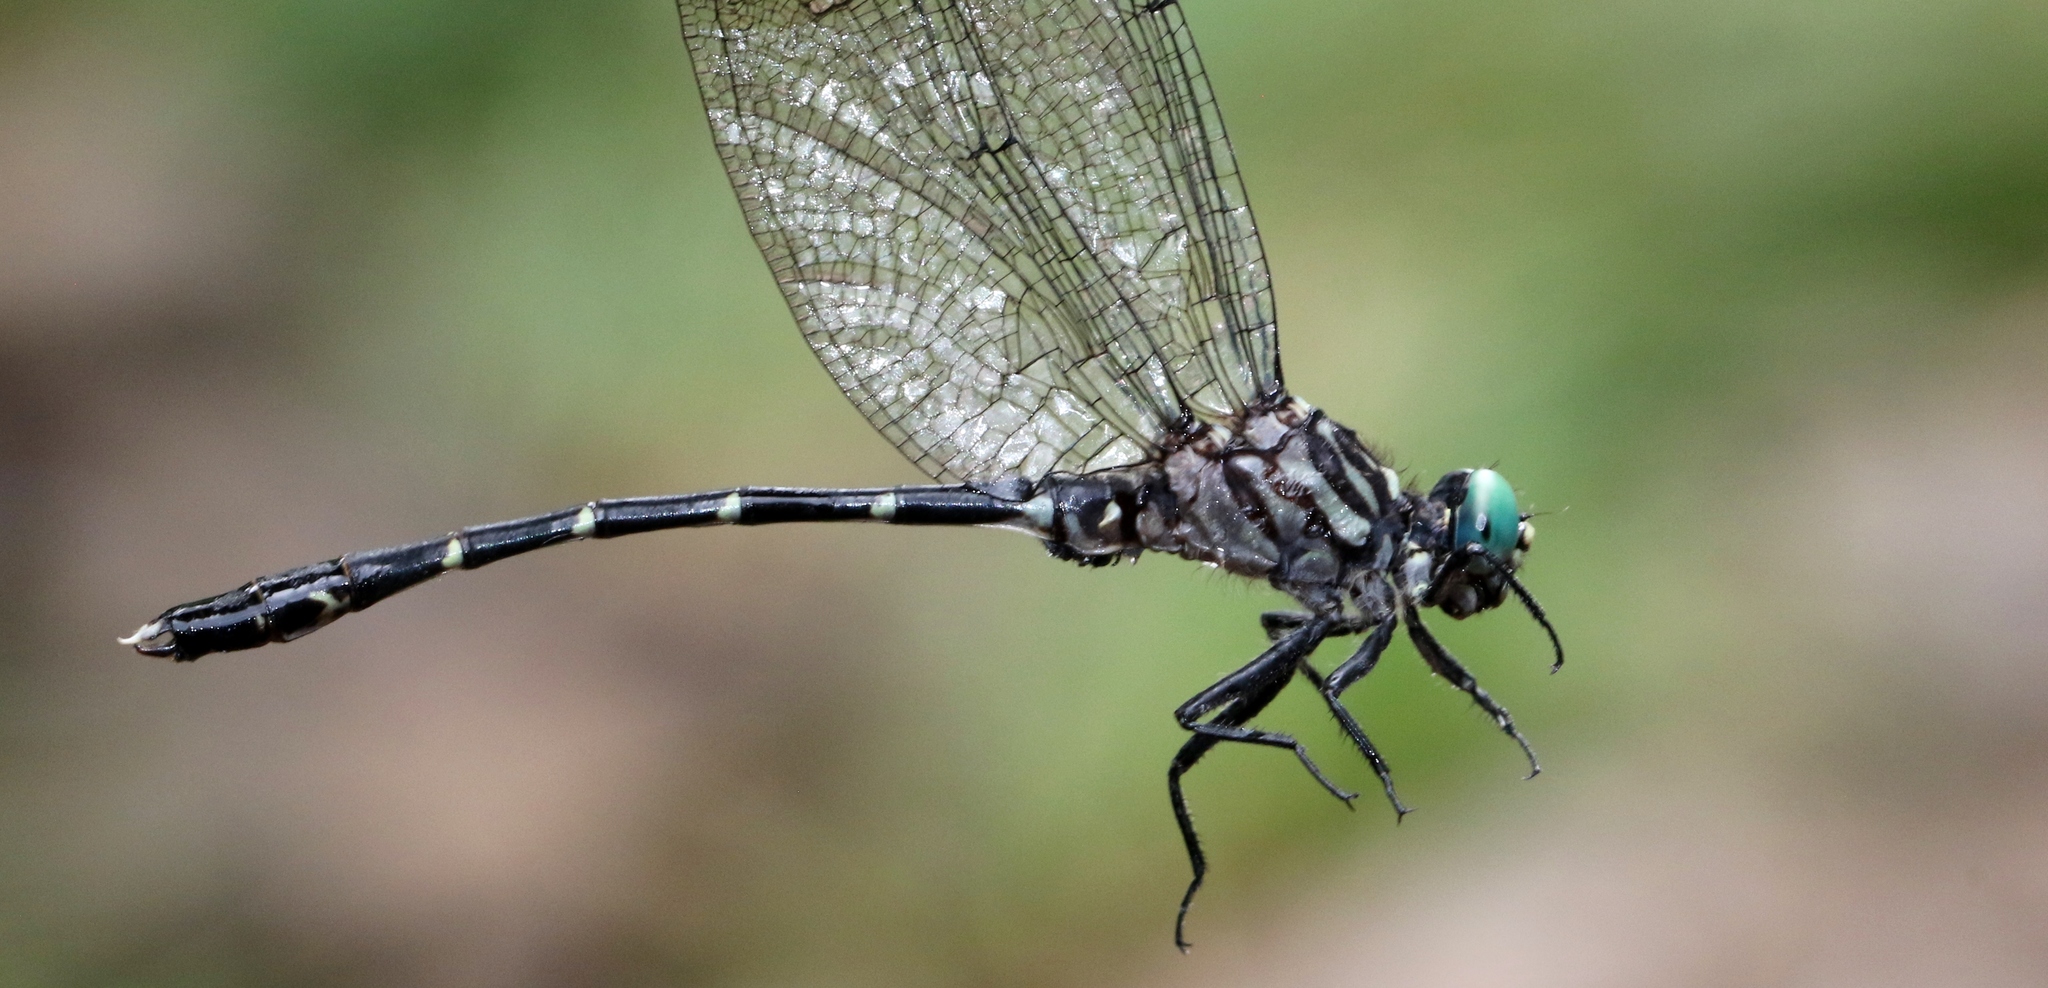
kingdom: Animalia
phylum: Arthropoda
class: Insecta
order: Odonata
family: Gomphidae
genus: Stylogomphus
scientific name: Stylogomphus albistylus
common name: Eastern least clubtail
